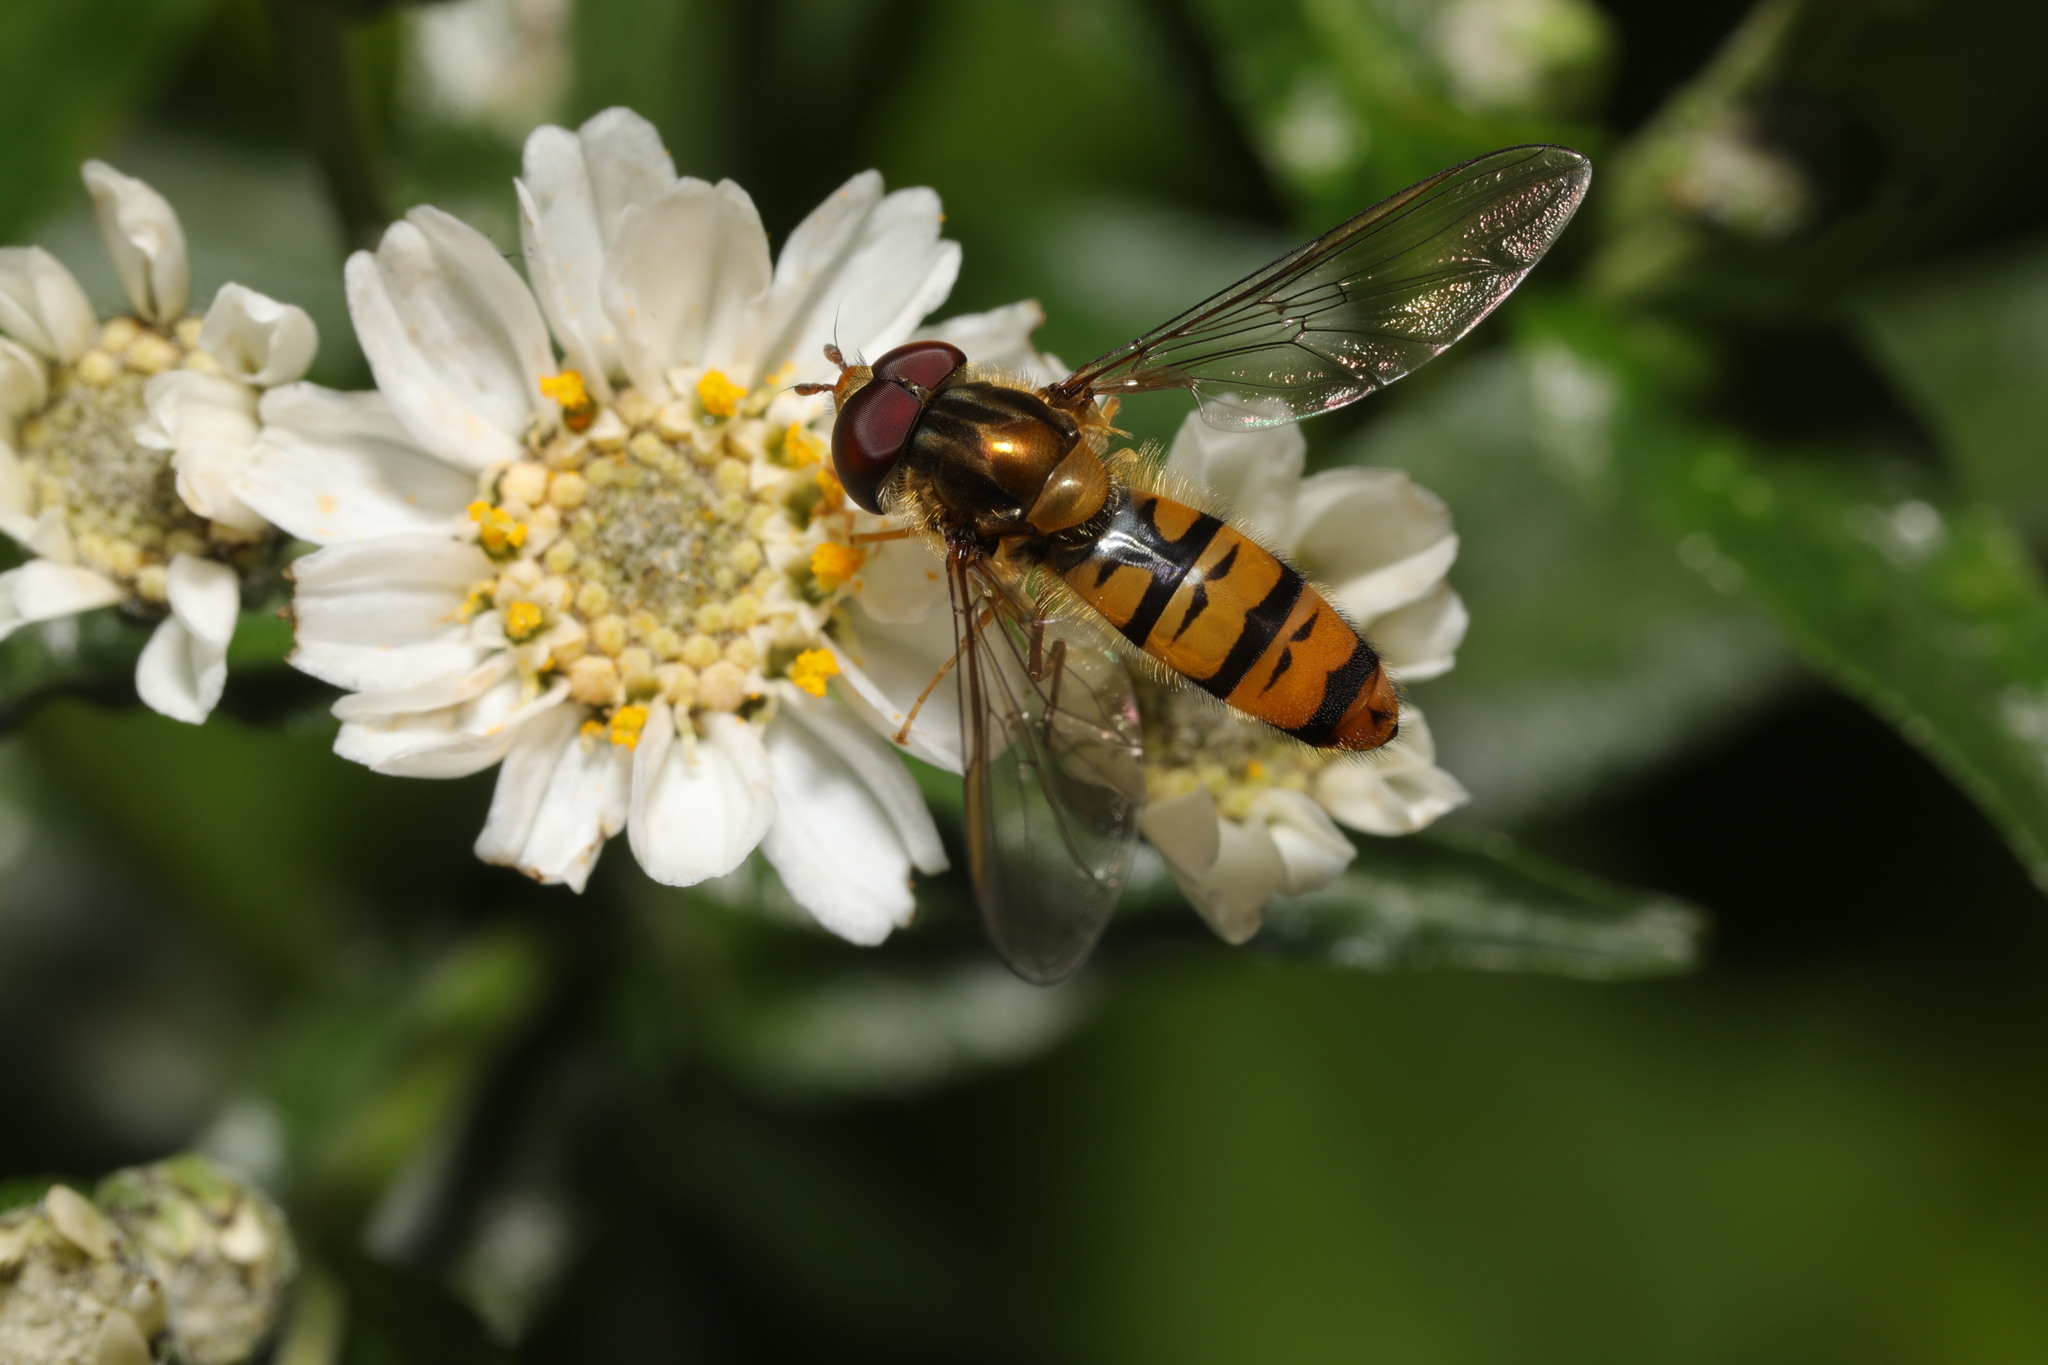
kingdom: Animalia
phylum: Arthropoda
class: Insecta
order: Diptera
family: Syrphidae
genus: Episyrphus
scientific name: Episyrphus balteatus
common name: Marmalade hoverfly
